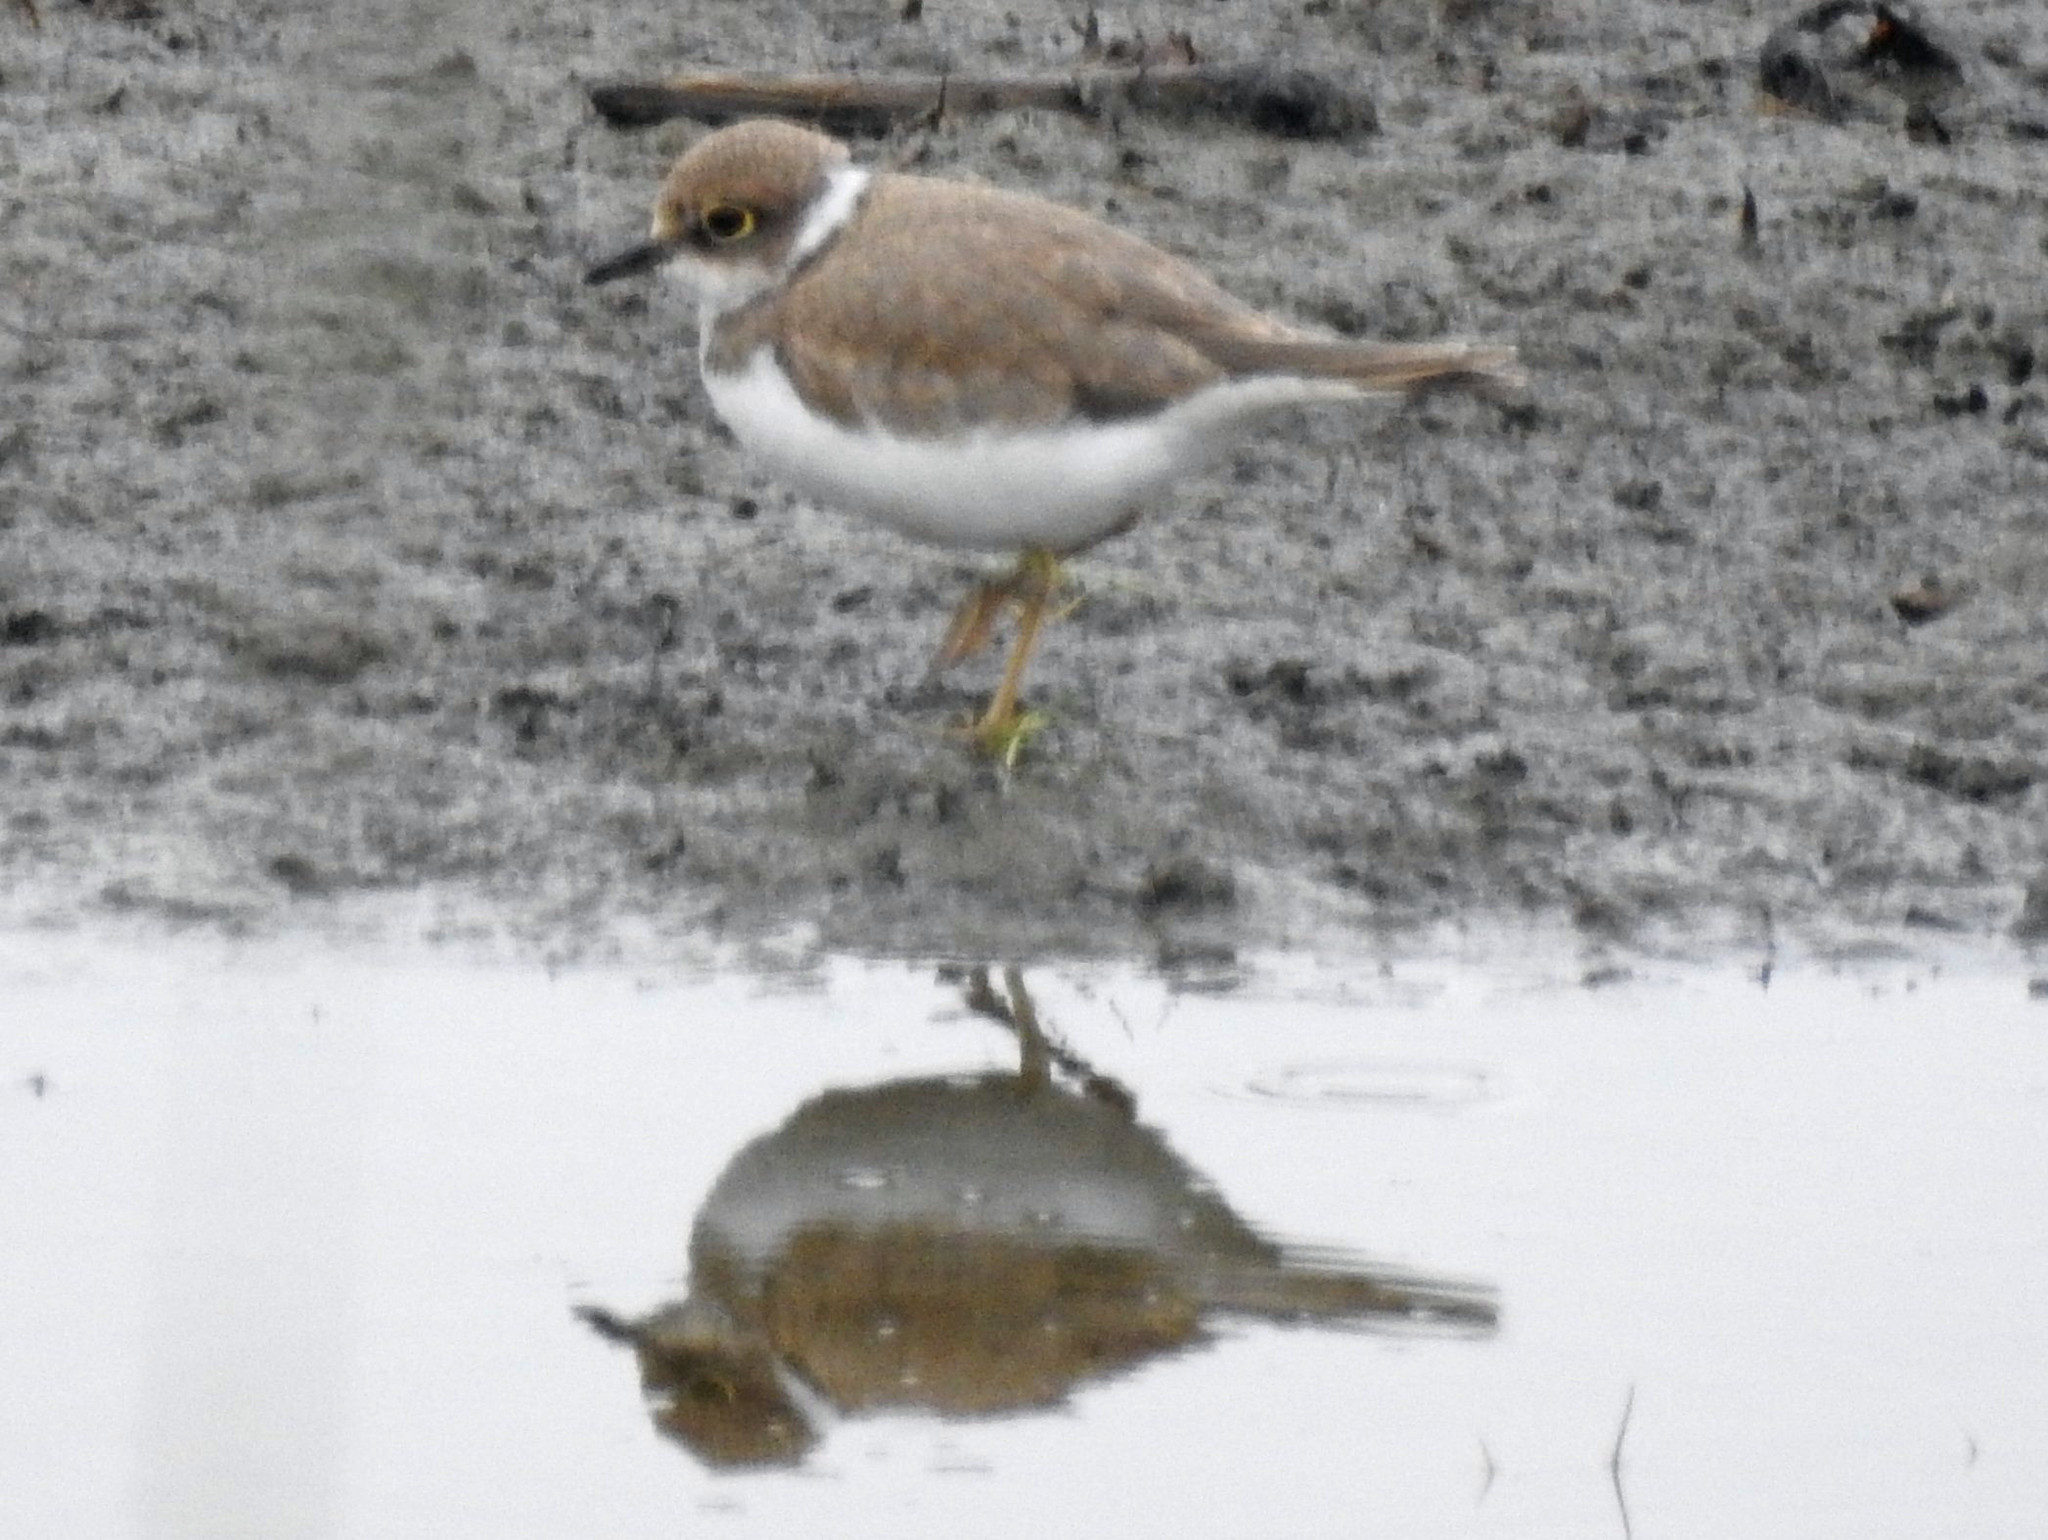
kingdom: Animalia
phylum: Chordata
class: Aves
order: Charadriiformes
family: Charadriidae
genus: Charadrius
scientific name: Charadrius dubius
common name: Little ringed plover
